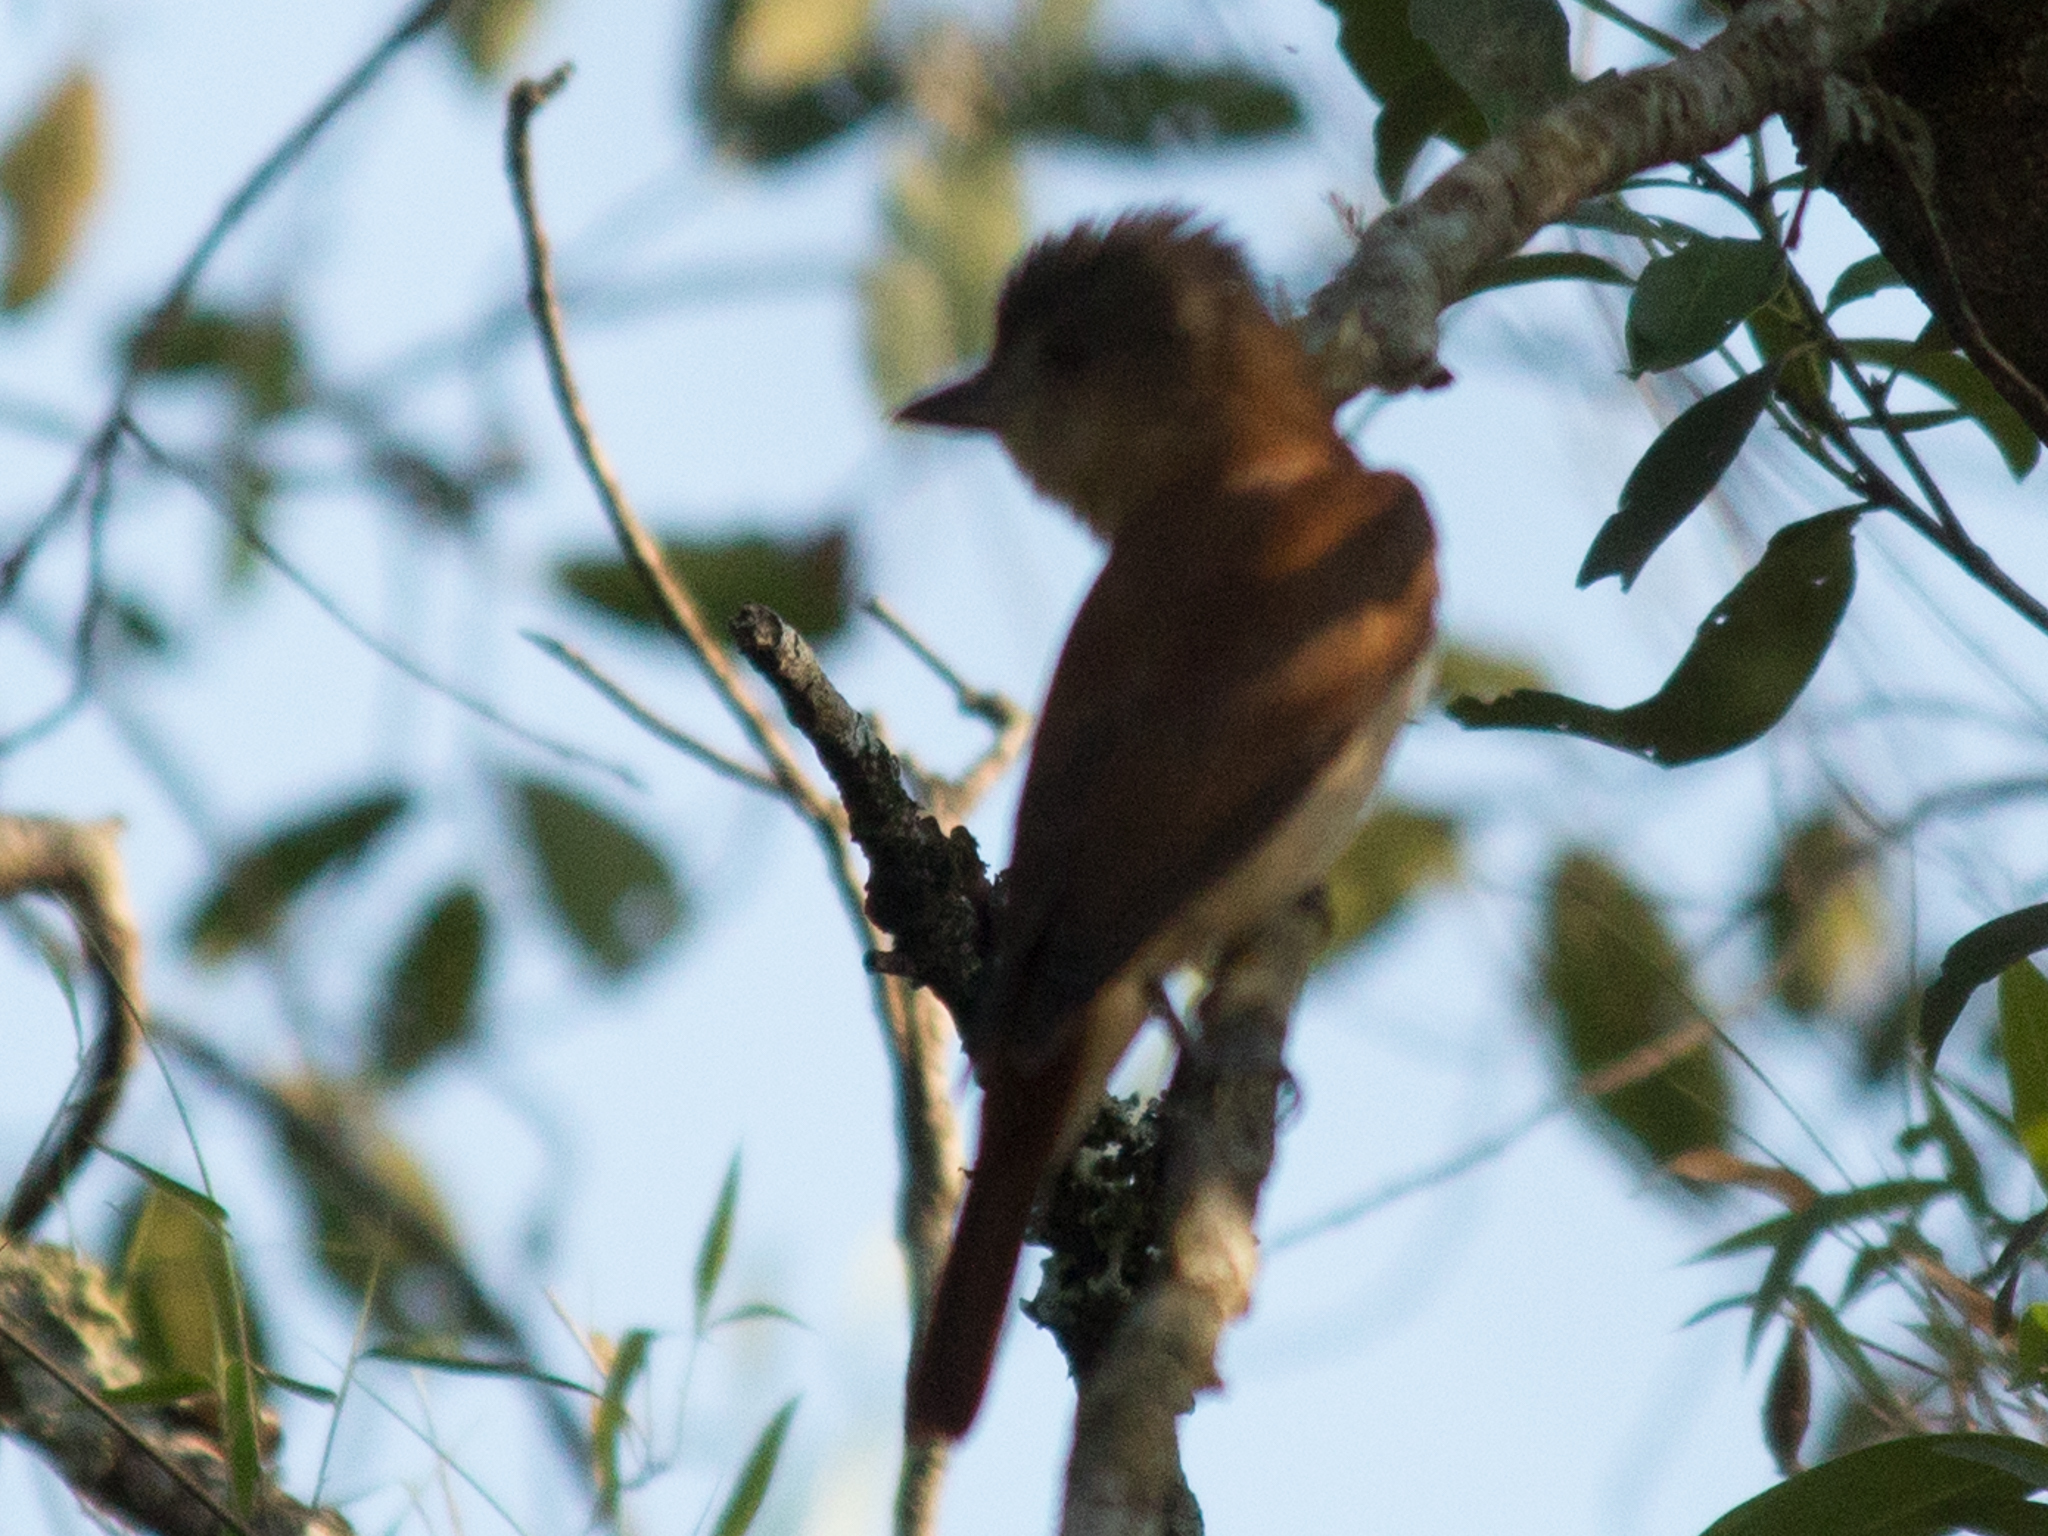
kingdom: Animalia
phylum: Chordata
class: Aves
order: Passeriformes
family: Cotingidae
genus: Pachyramphus
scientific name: Pachyramphus validus
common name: Crested becard
